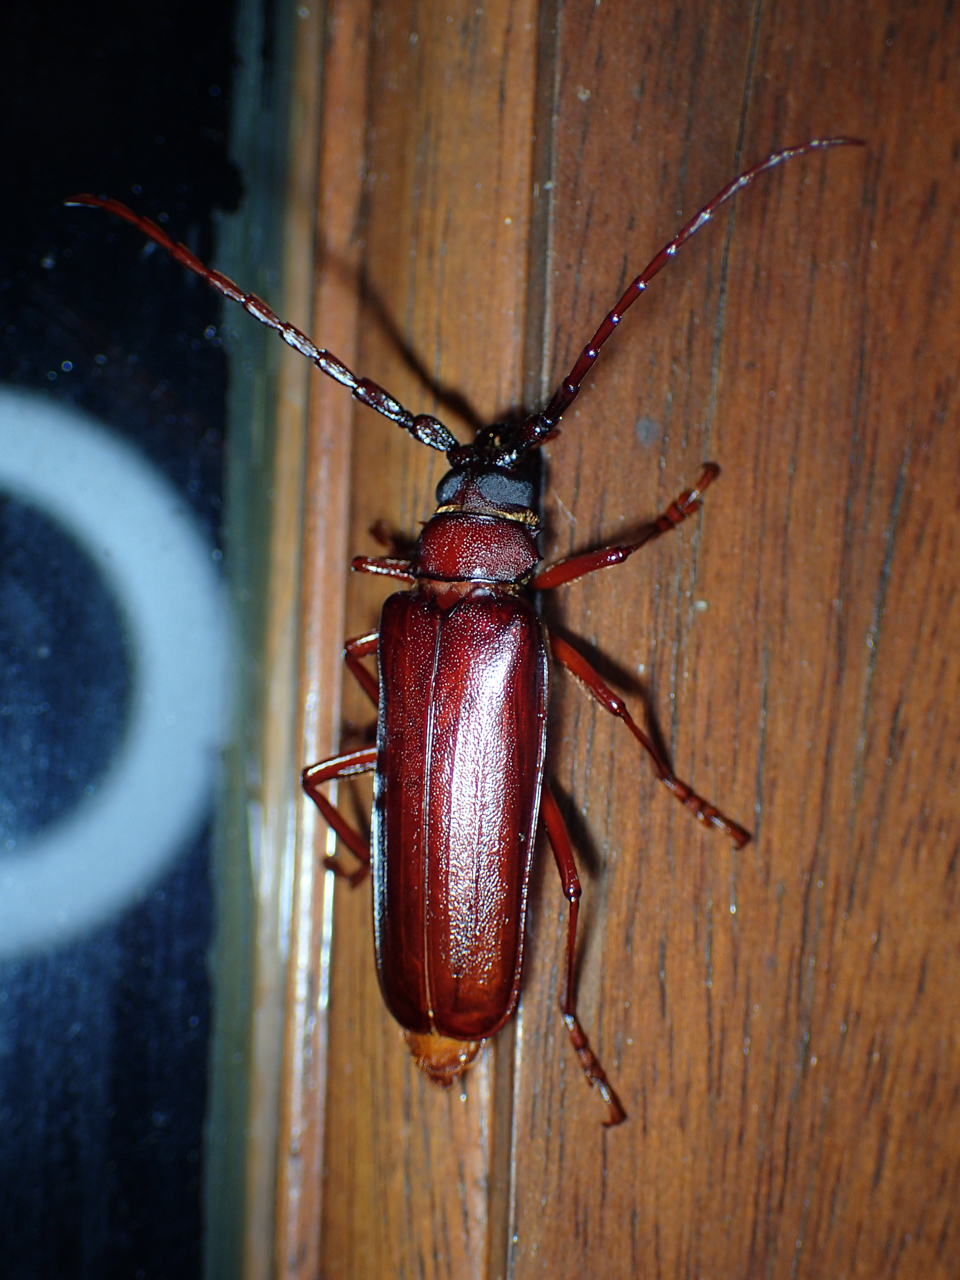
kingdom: Animalia
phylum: Arthropoda
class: Insecta
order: Coleoptera
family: Cerambycidae
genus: Orthosoma
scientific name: Orthosoma brunneum
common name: Brown prionid beetle
